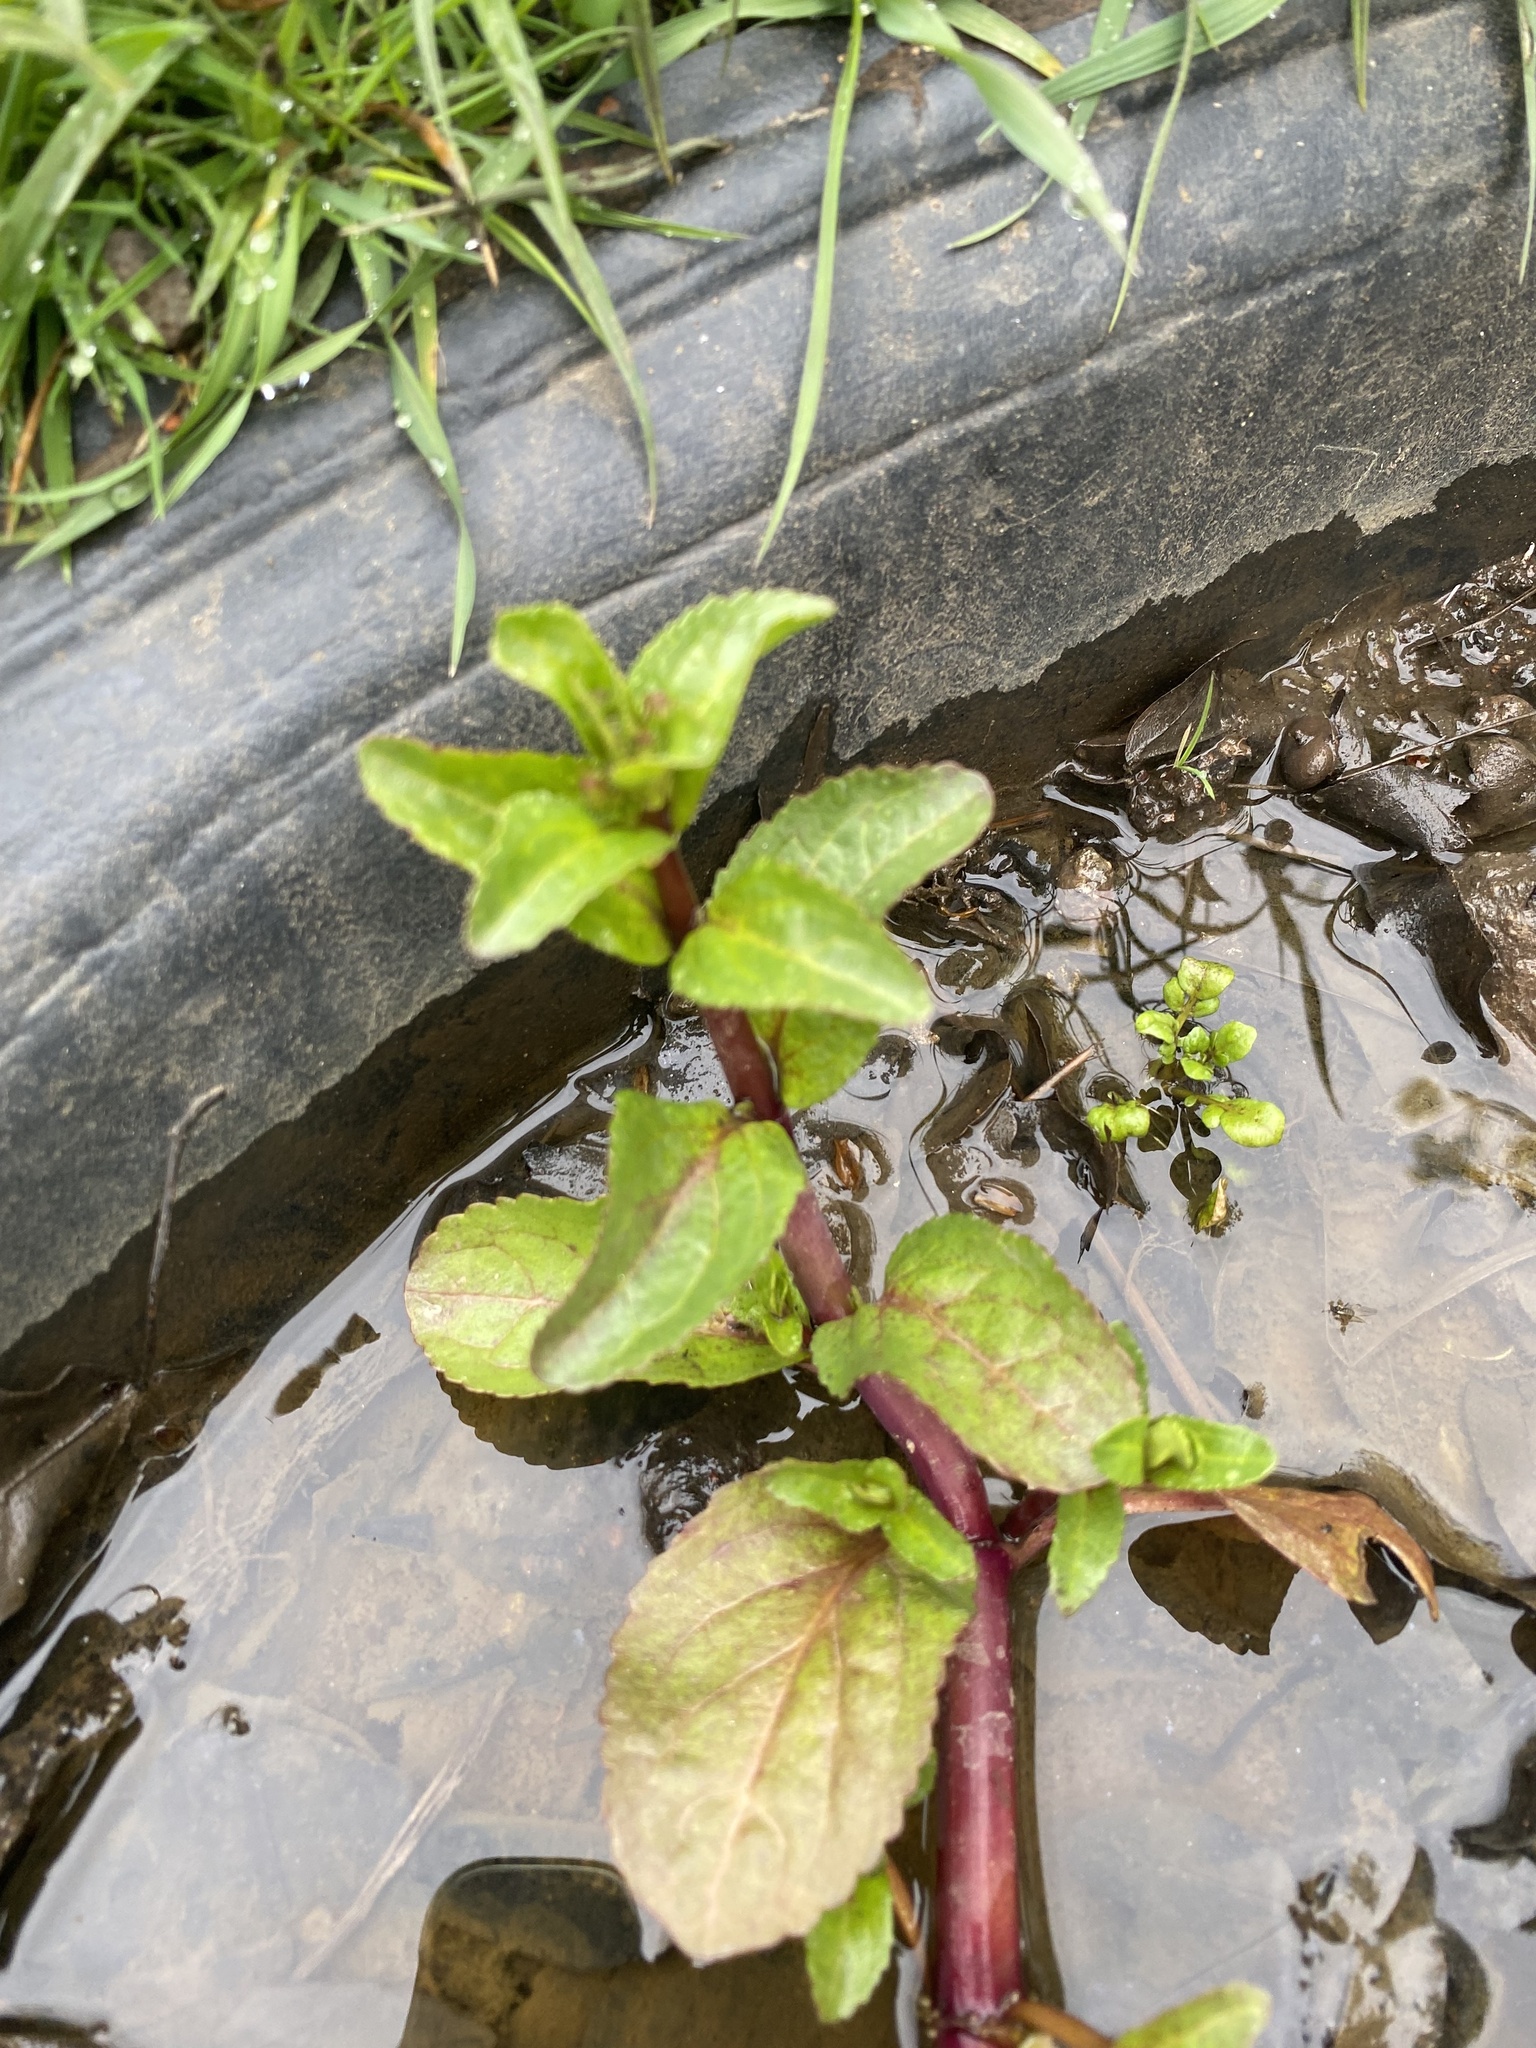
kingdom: Plantae
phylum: Tracheophyta
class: Magnoliopsida
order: Lamiales
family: Plantaginaceae
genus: Veronica
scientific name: Veronica beccabunga
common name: Brooklime
